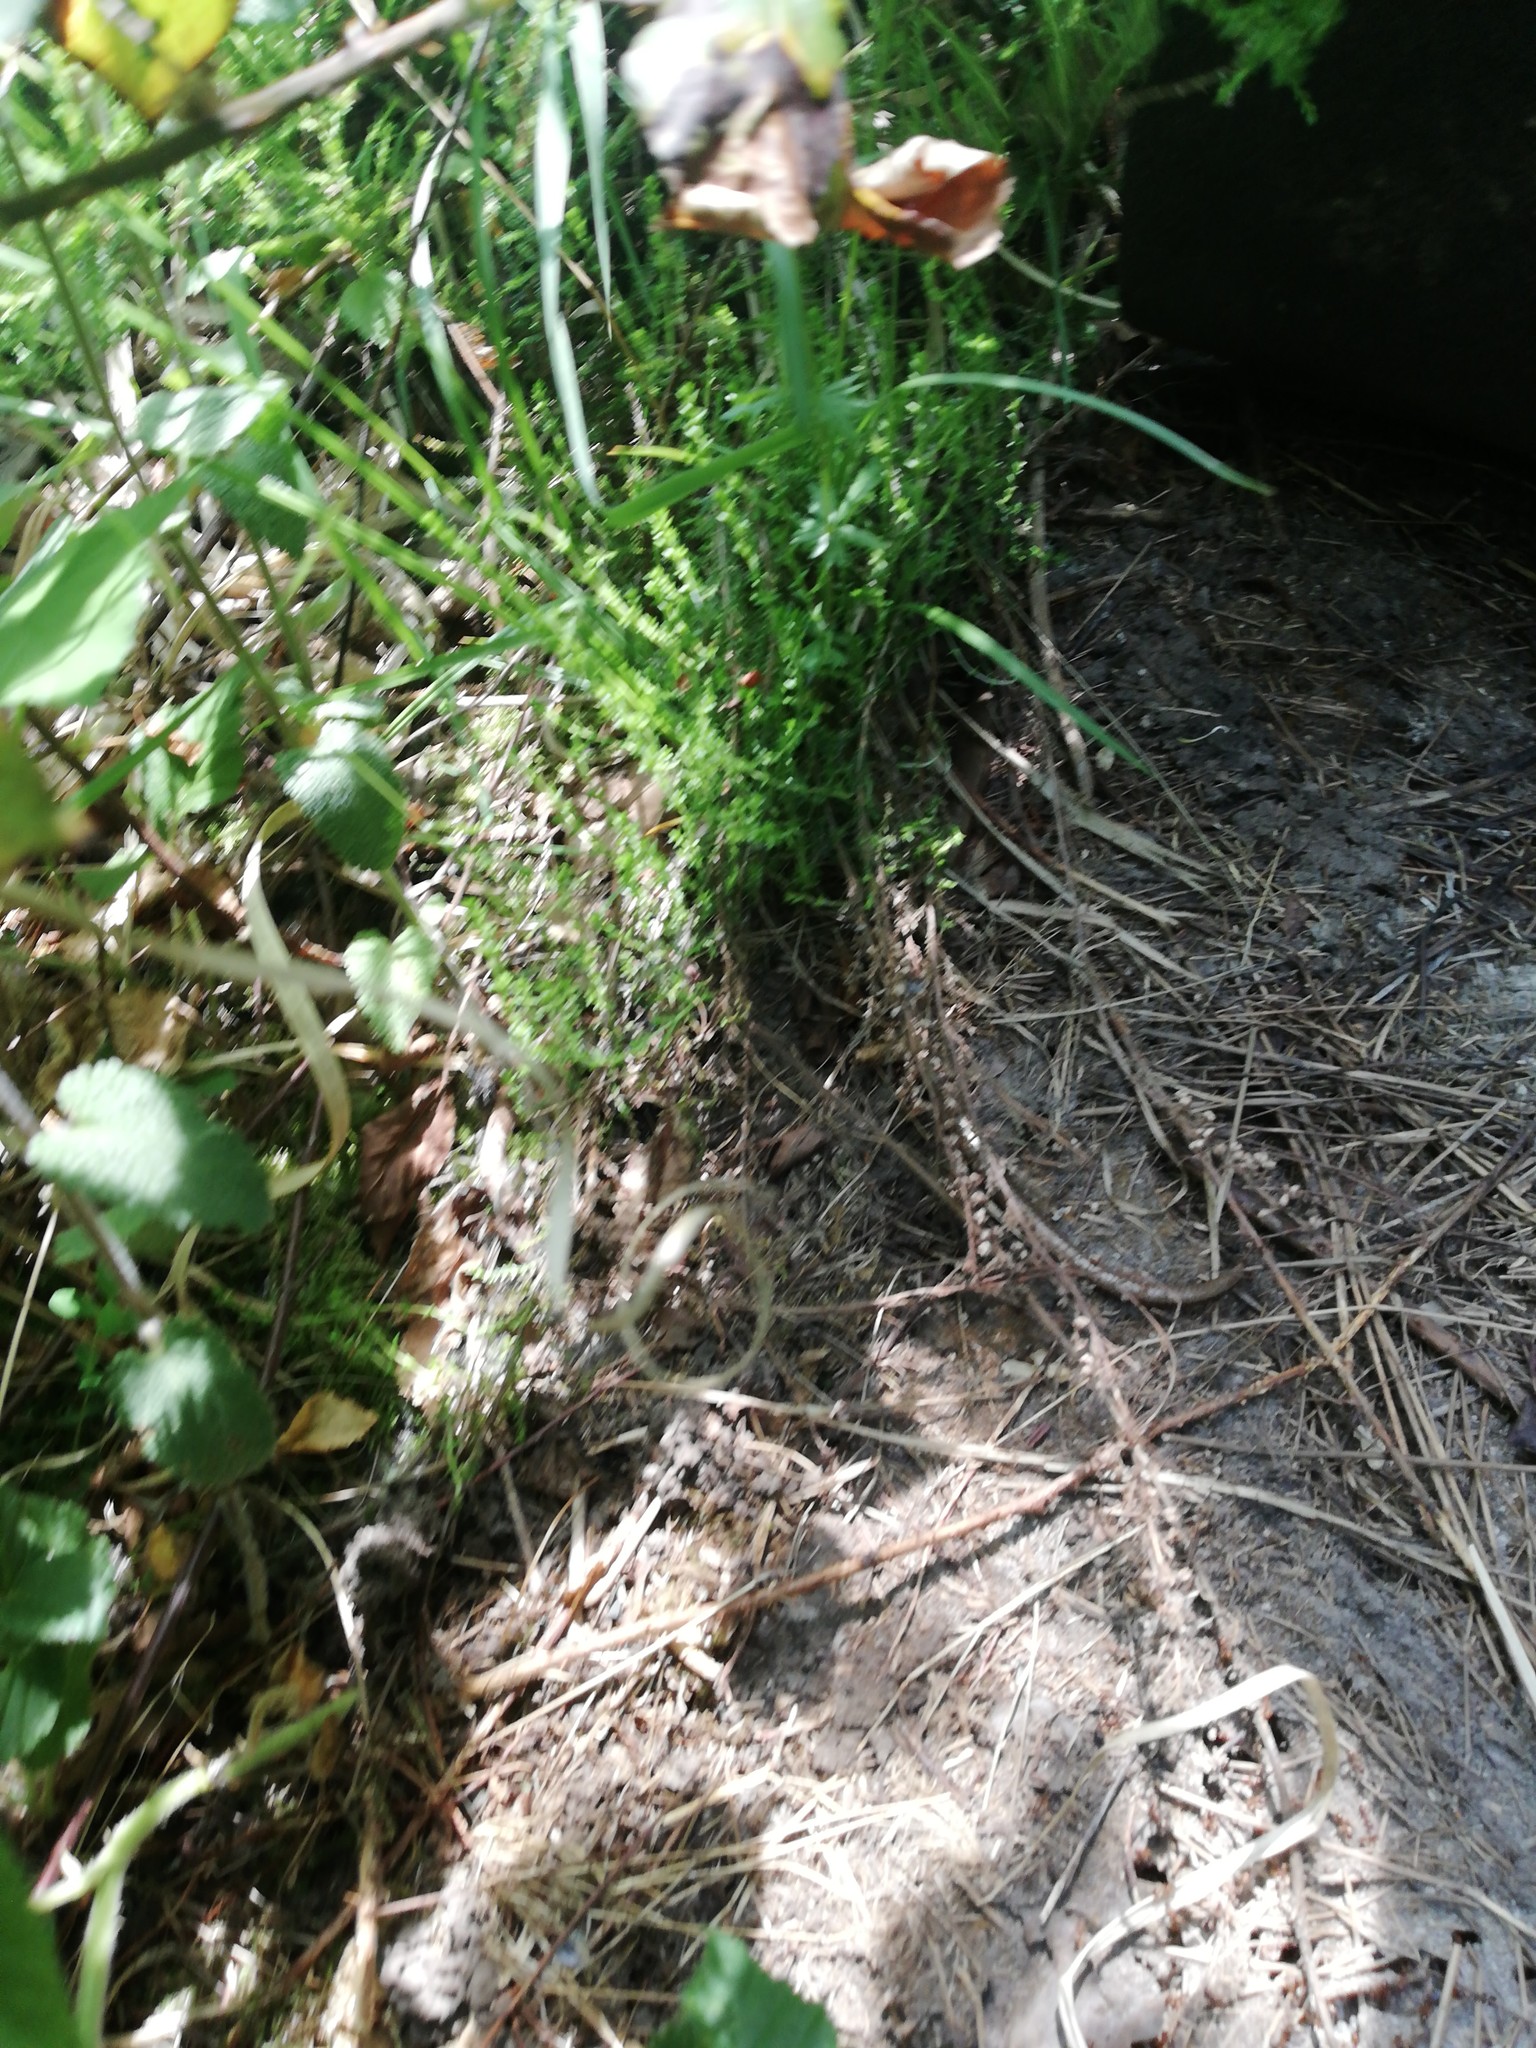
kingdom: Animalia
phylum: Chordata
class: Squamata
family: Anguidae
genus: Anguis
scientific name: Anguis fragilis
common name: Slow worm
